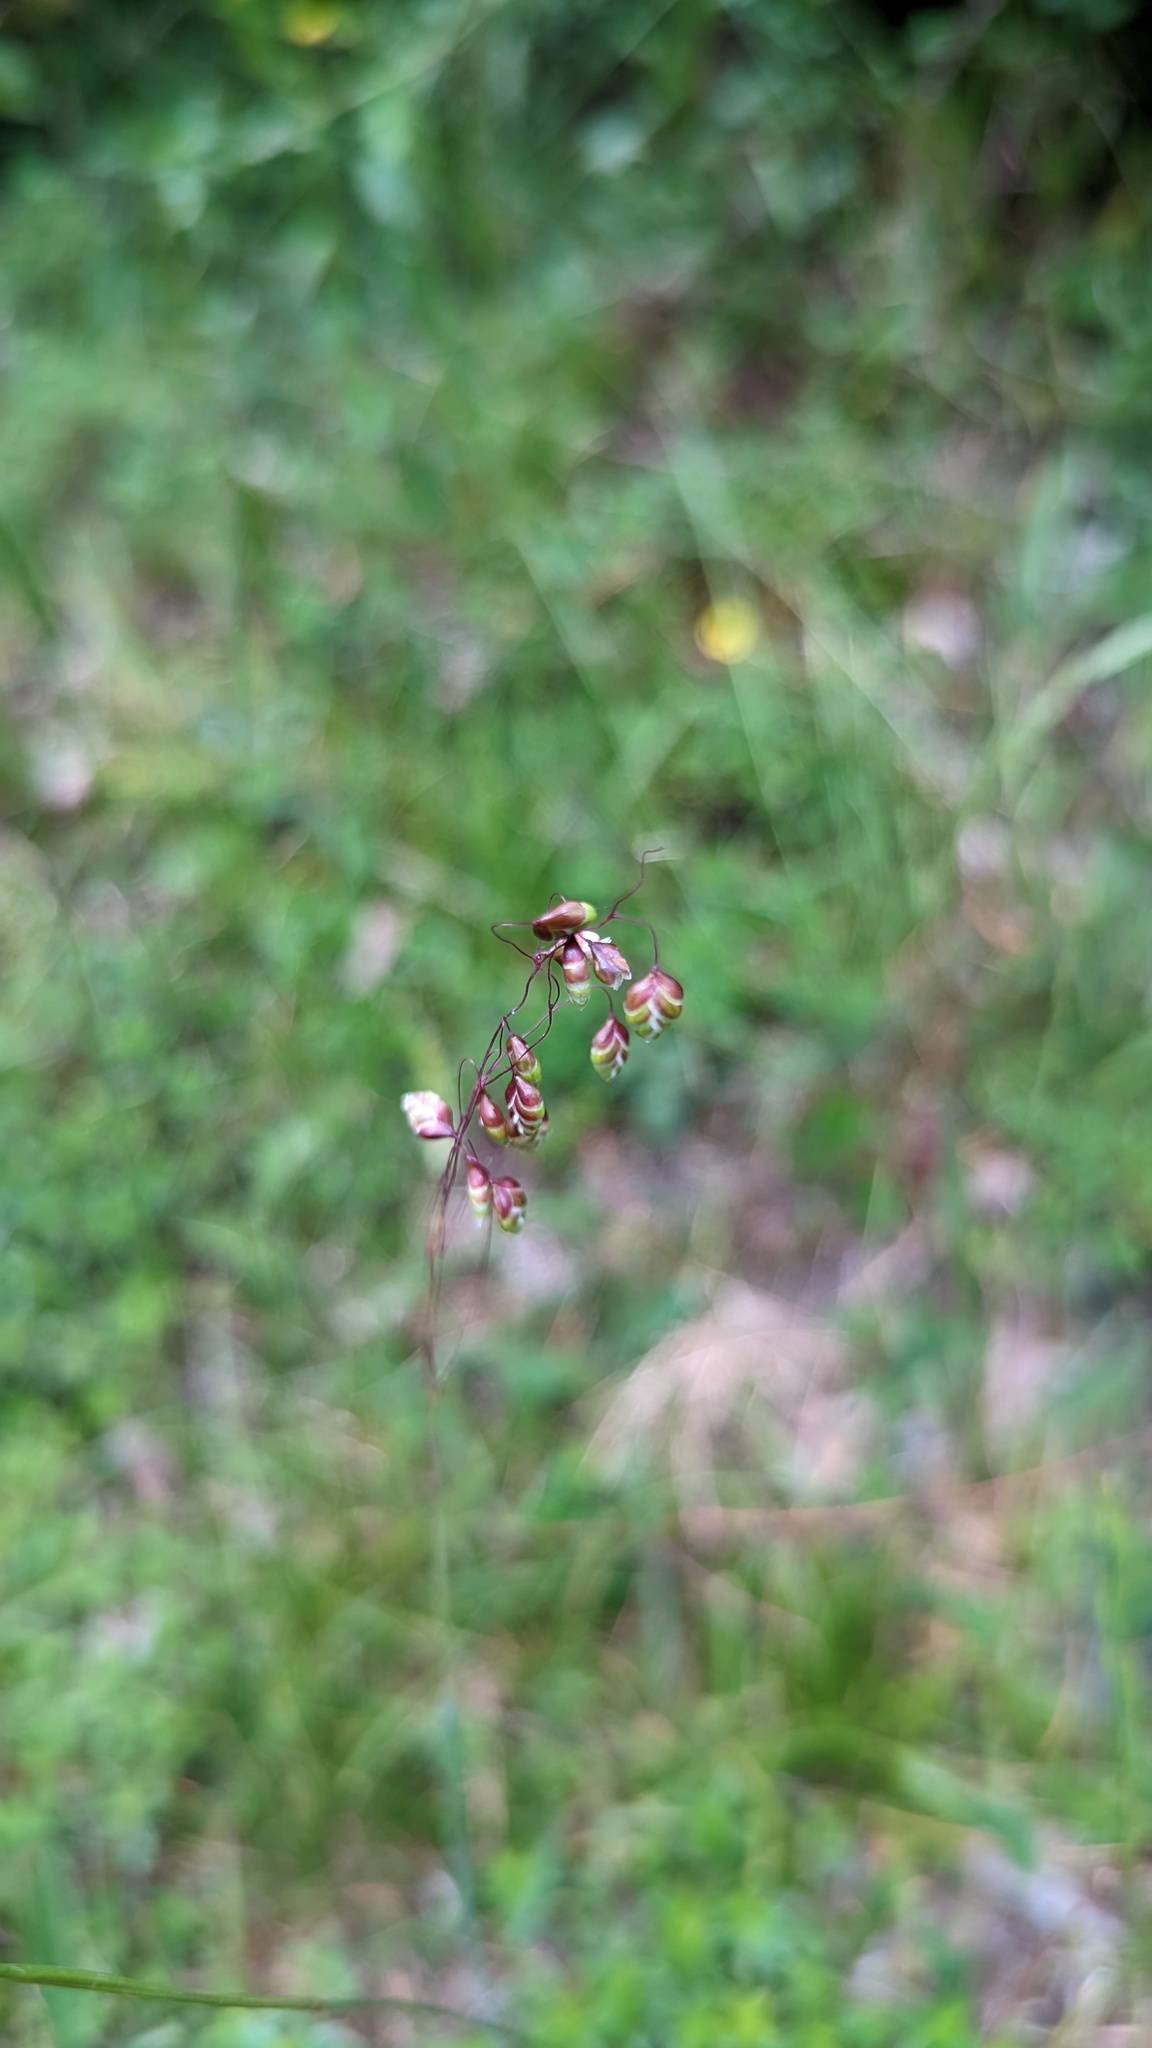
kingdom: Plantae
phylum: Tracheophyta
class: Liliopsida
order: Poales
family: Poaceae
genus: Briza
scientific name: Briza media
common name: Quaking grass
